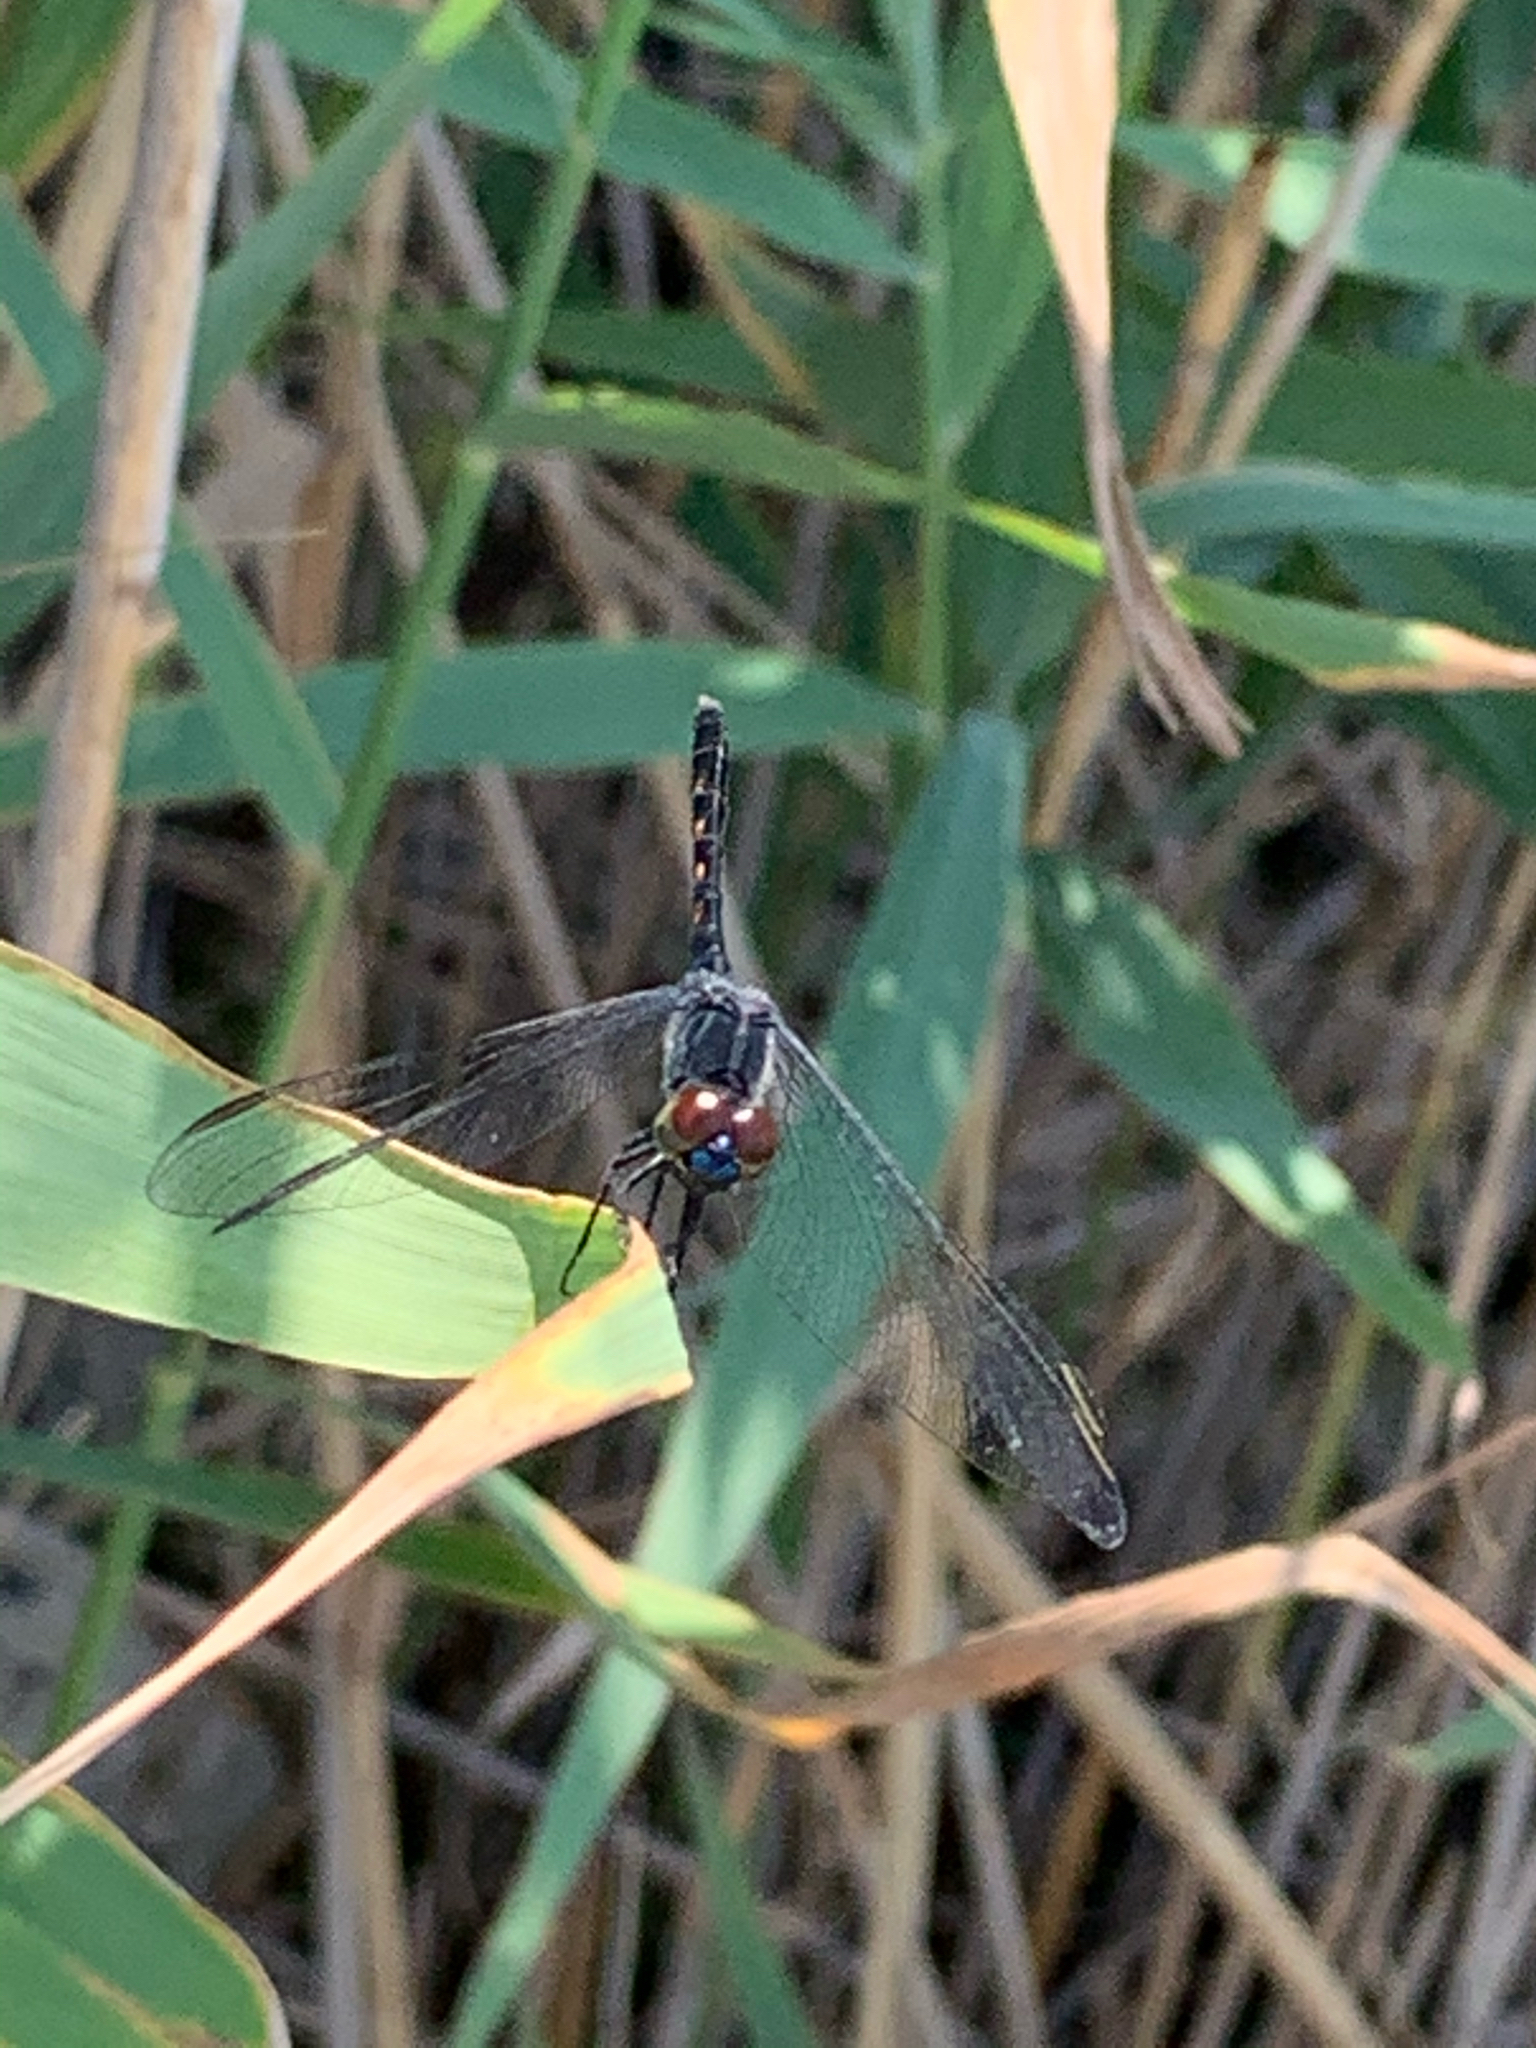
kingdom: Animalia
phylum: Arthropoda
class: Insecta
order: Odonata
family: Libellulidae
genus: Erythrodiplax
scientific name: Erythrodiplax berenice
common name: Seaside dragonlet
